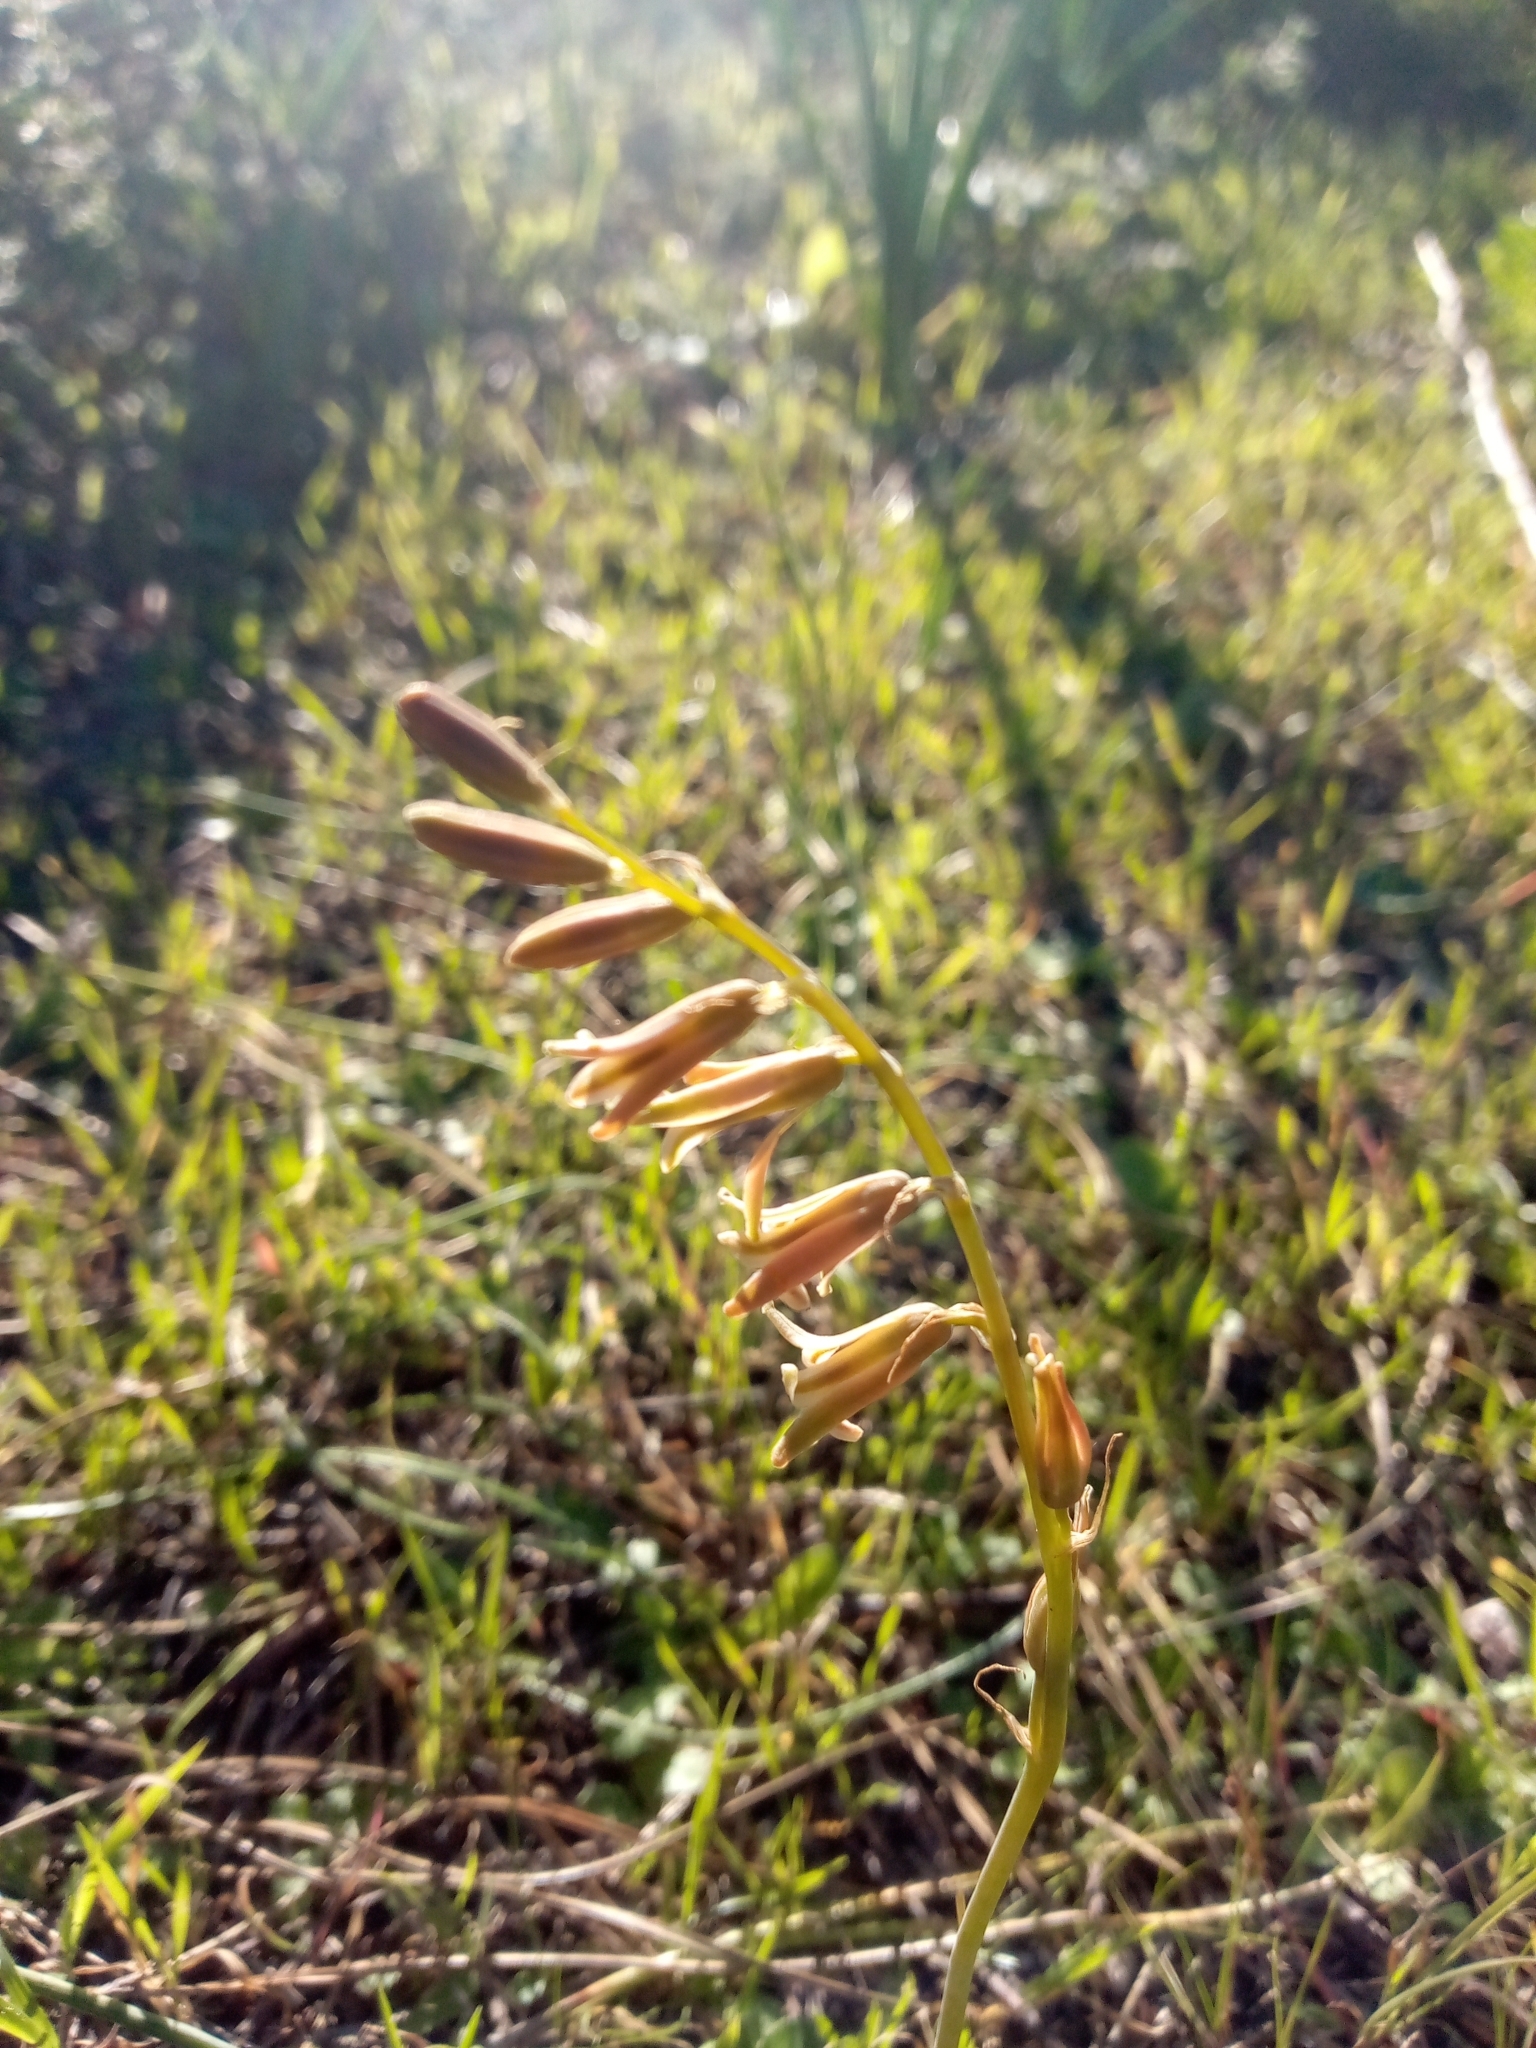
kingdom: Plantae
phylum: Tracheophyta
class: Liliopsida
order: Asparagales
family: Asparagaceae
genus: Dipcadi
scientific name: Dipcadi serotinum
